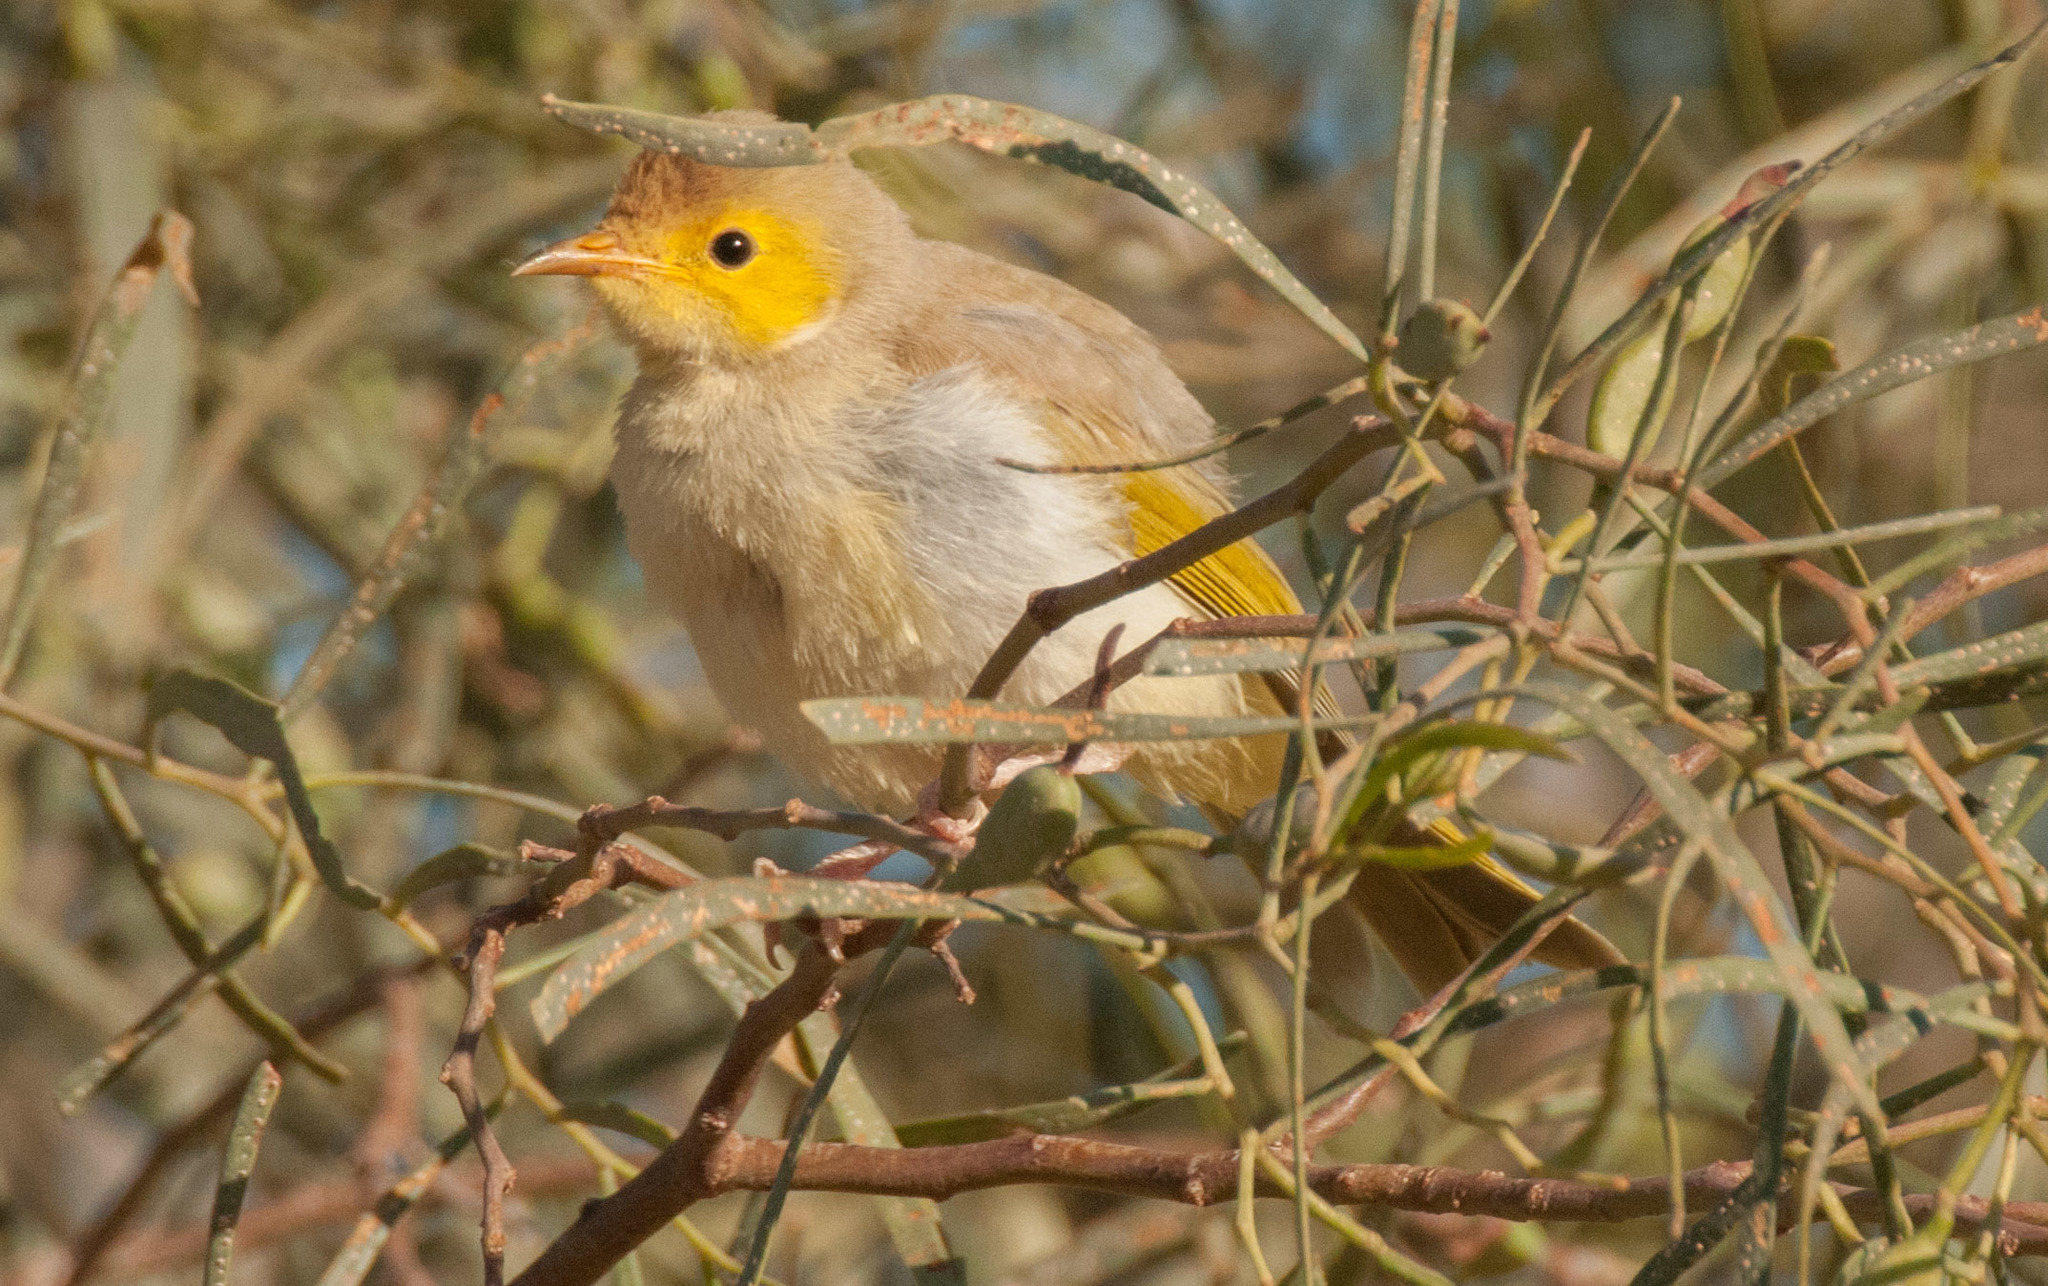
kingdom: Animalia
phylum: Chordata
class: Aves
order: Passeriformes
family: Meliphagidae
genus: Ptilotula
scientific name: Ptilotula penicillata
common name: White-plumed honeyeater
